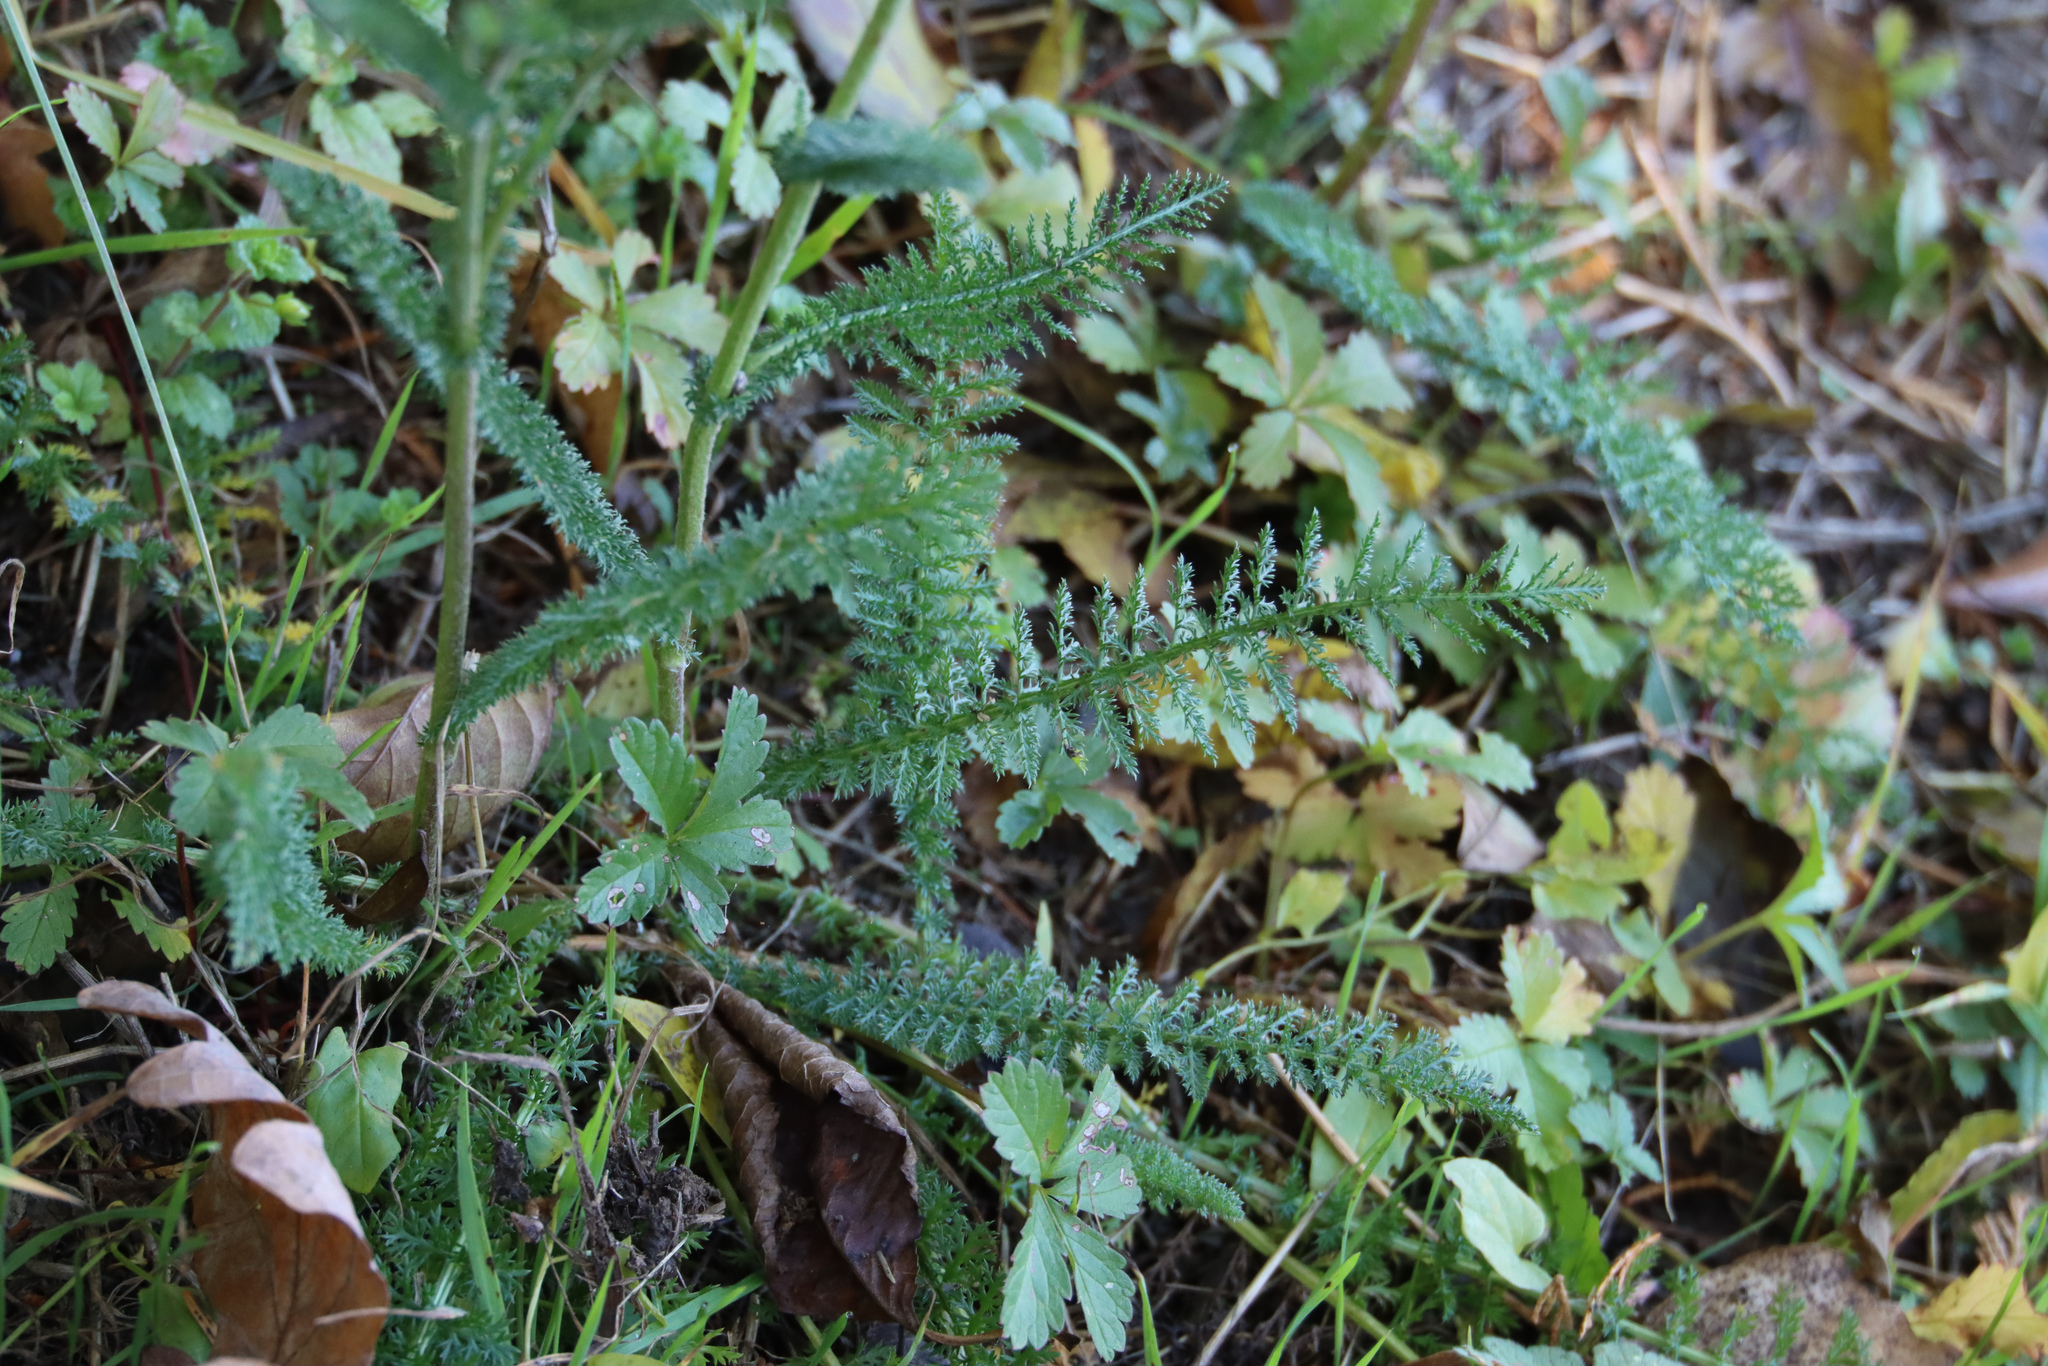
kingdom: Plantae
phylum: Tracheophyta
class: Magnoliopsida
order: Asterales
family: Asteraceae
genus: Achillea
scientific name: Achillea millefolium
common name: Yarrow
